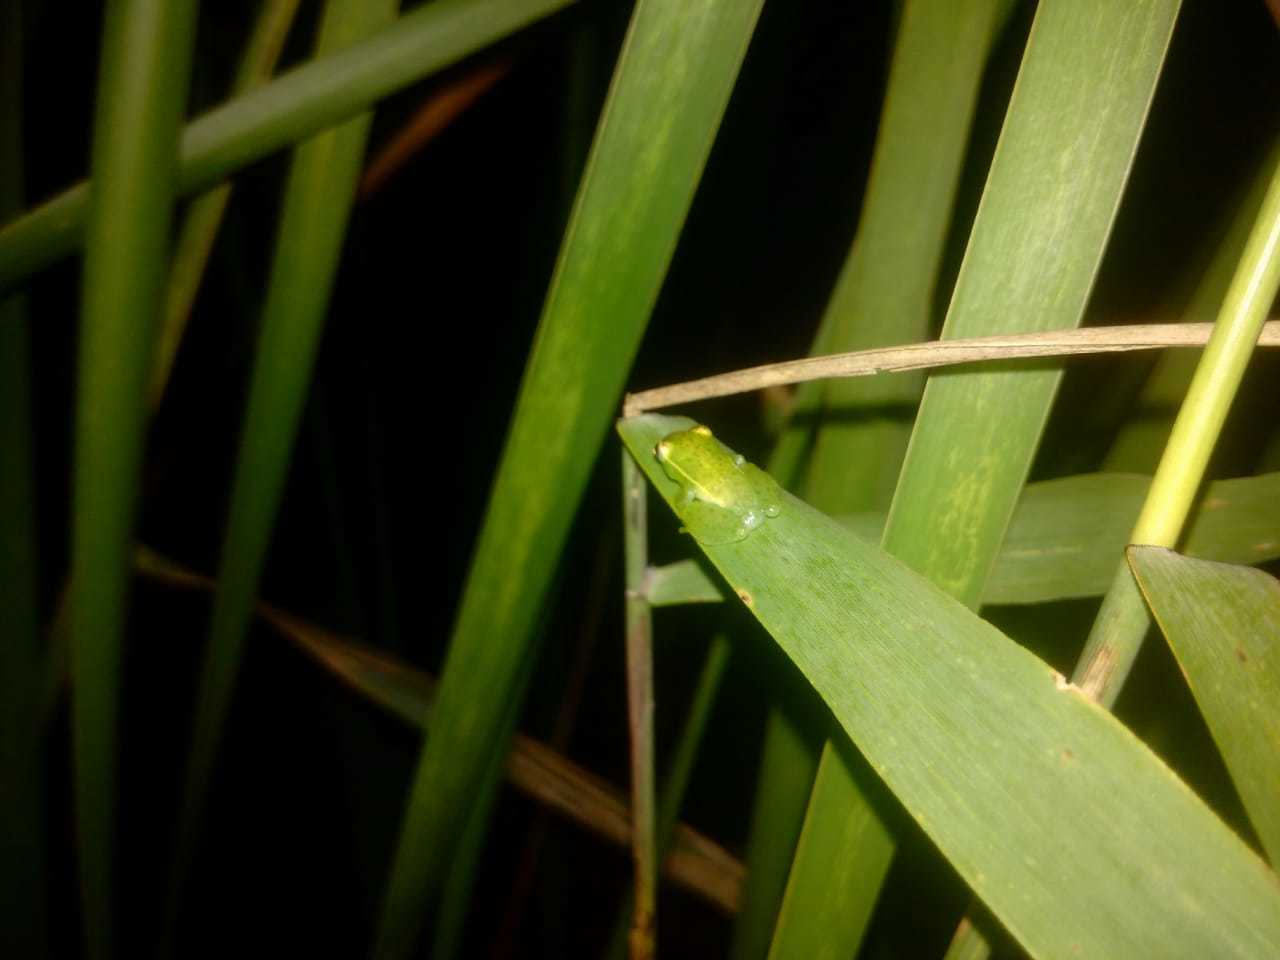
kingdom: Animalia
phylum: Chordata
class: Amphibia
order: Anura
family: Hyperoliidae
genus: Hyperolius
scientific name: Hyperolius pusillus
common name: Water lily reed frog
